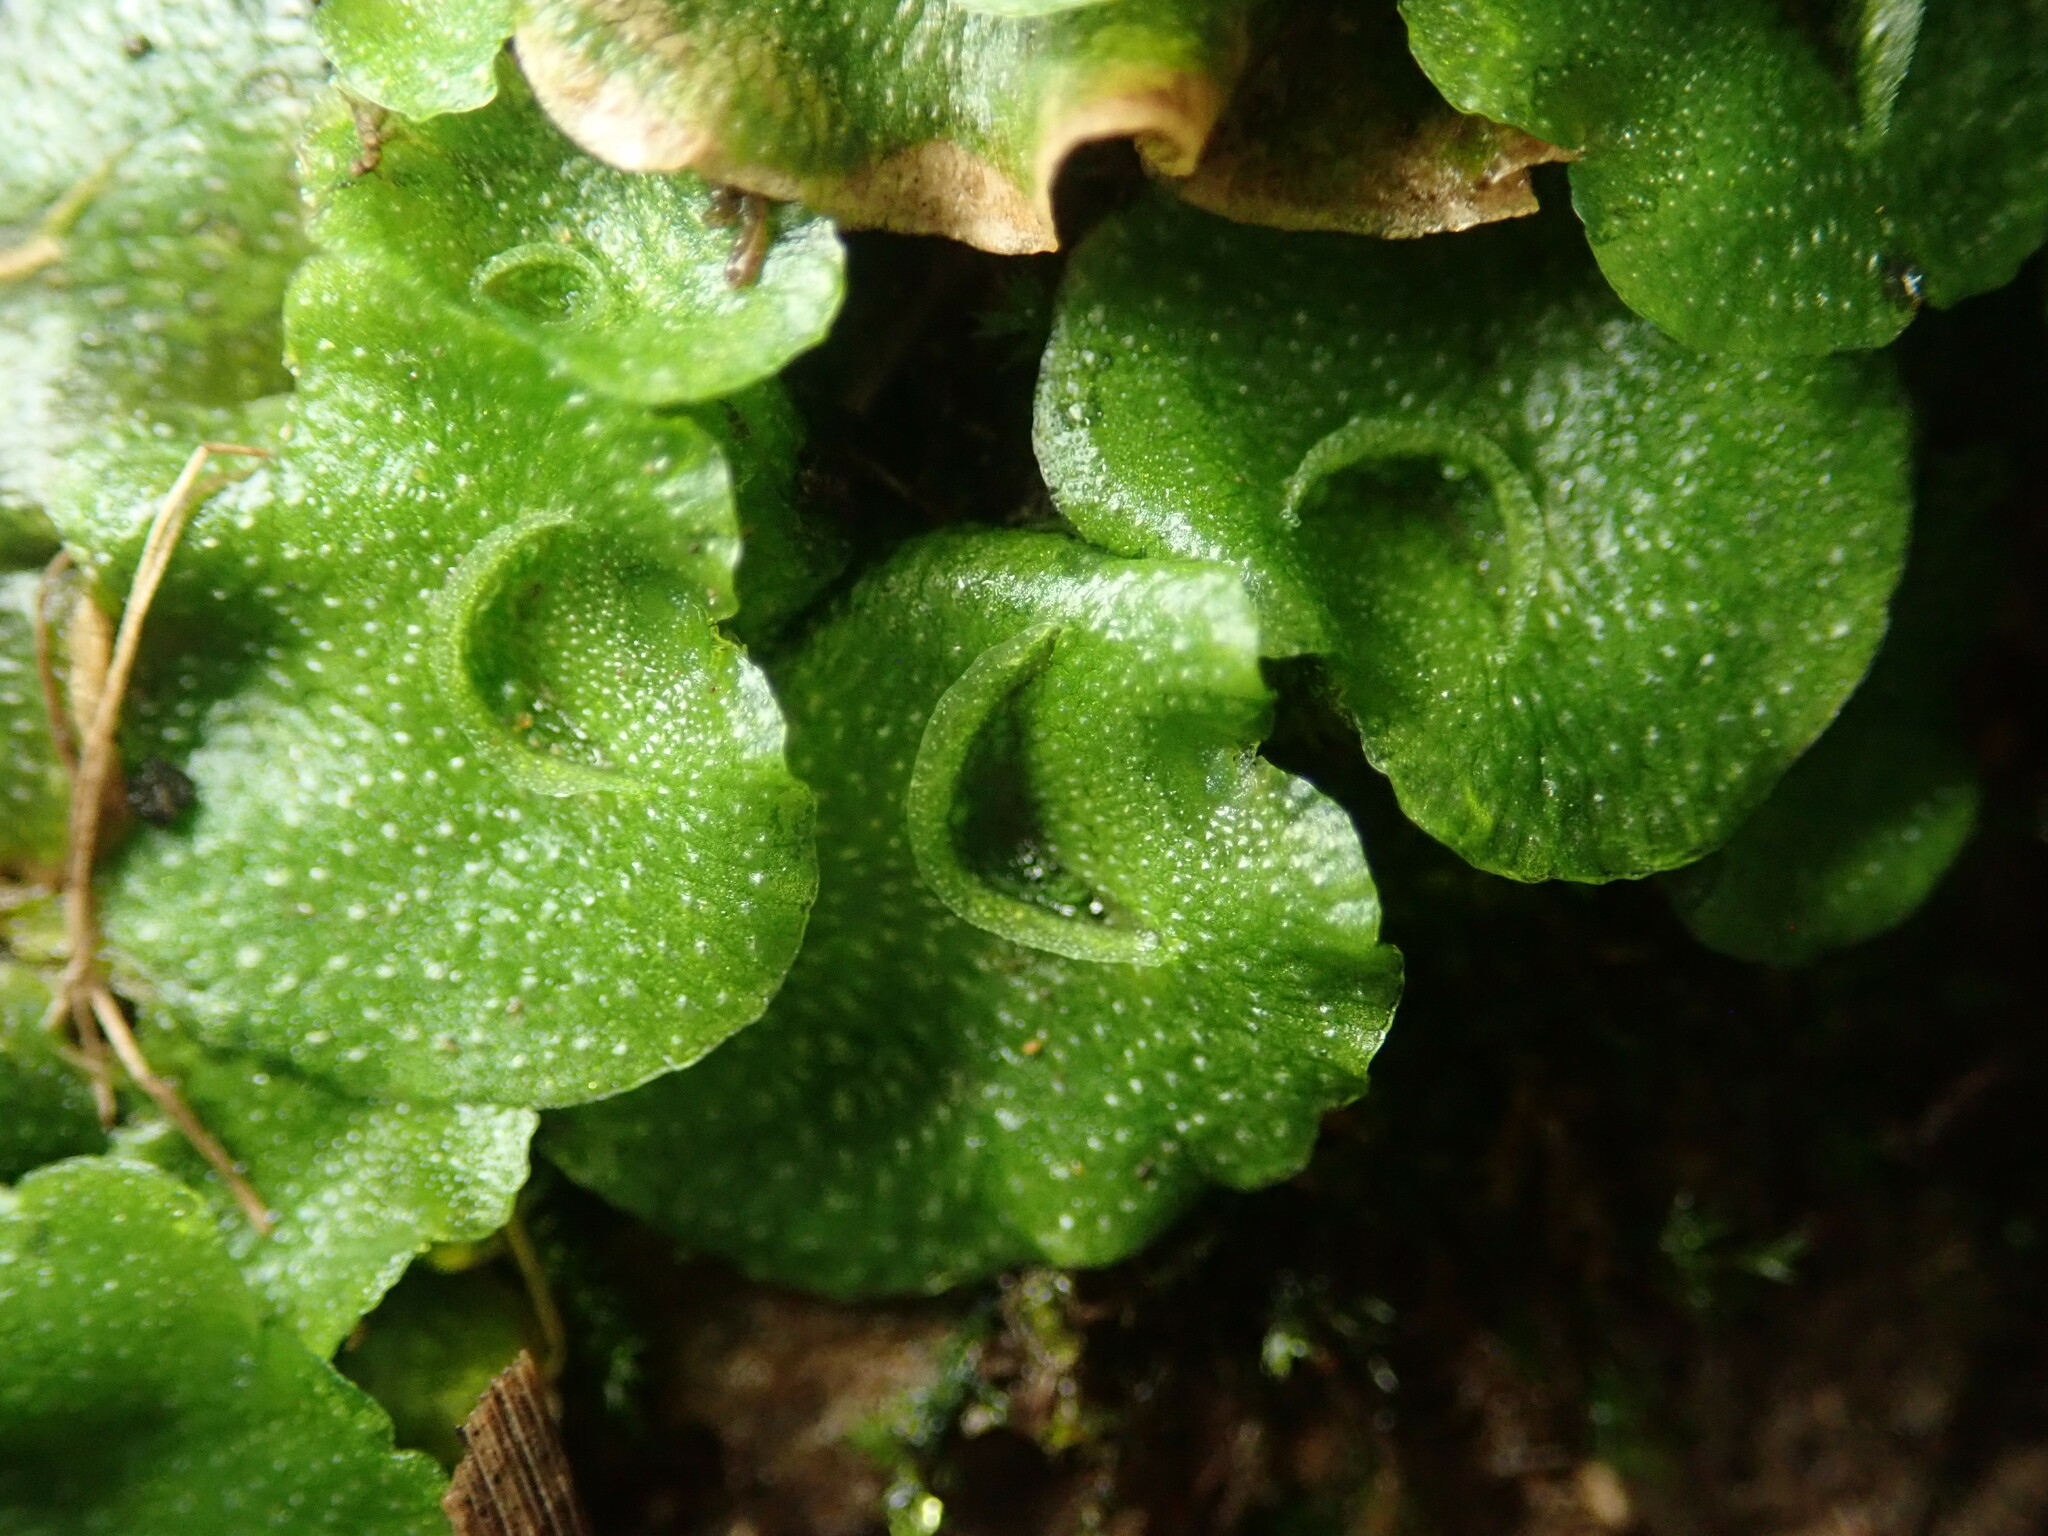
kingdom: Plantae
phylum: Marchantiophyta
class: Marchantiopsida
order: Lunulariales
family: Lunulariaceae
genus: Lunularia
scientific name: Lunularia cruciata
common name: Crescent-cup liverwort
